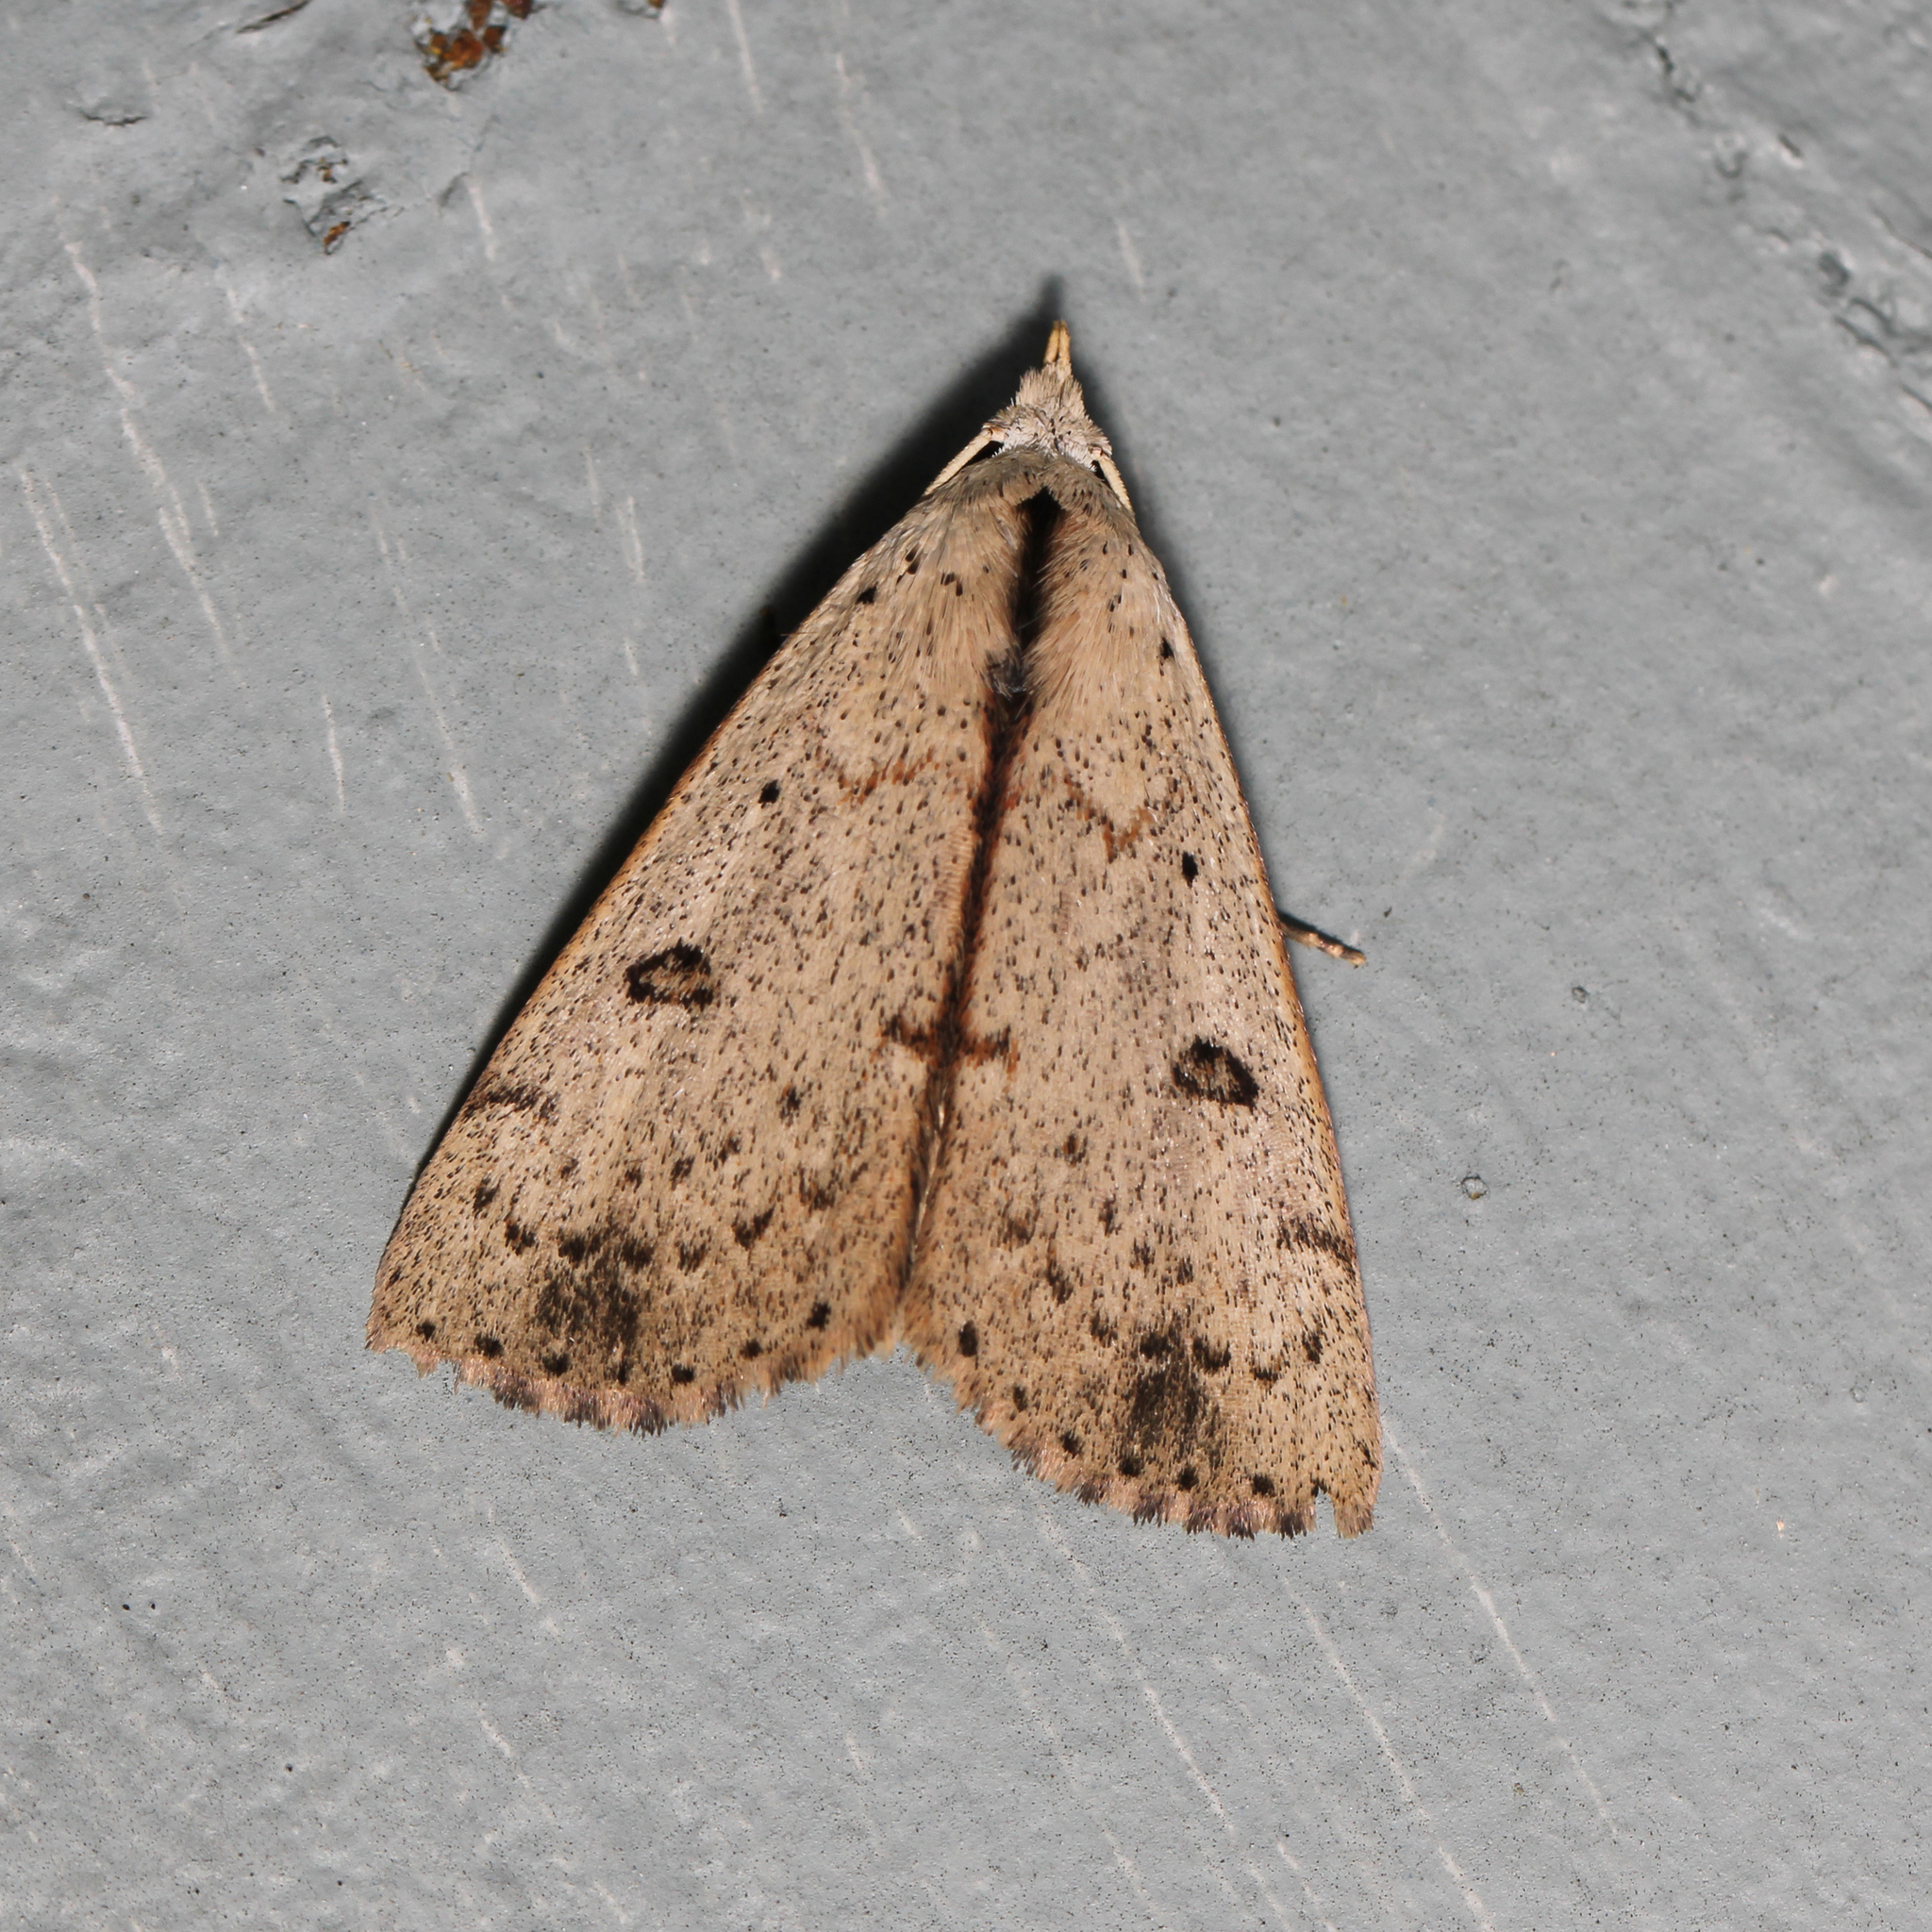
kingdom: Animalia
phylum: Arthropoda
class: Insecta
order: Lepidoptera
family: Erebidae
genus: Scolecocampa
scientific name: Scolecocampa liburna
